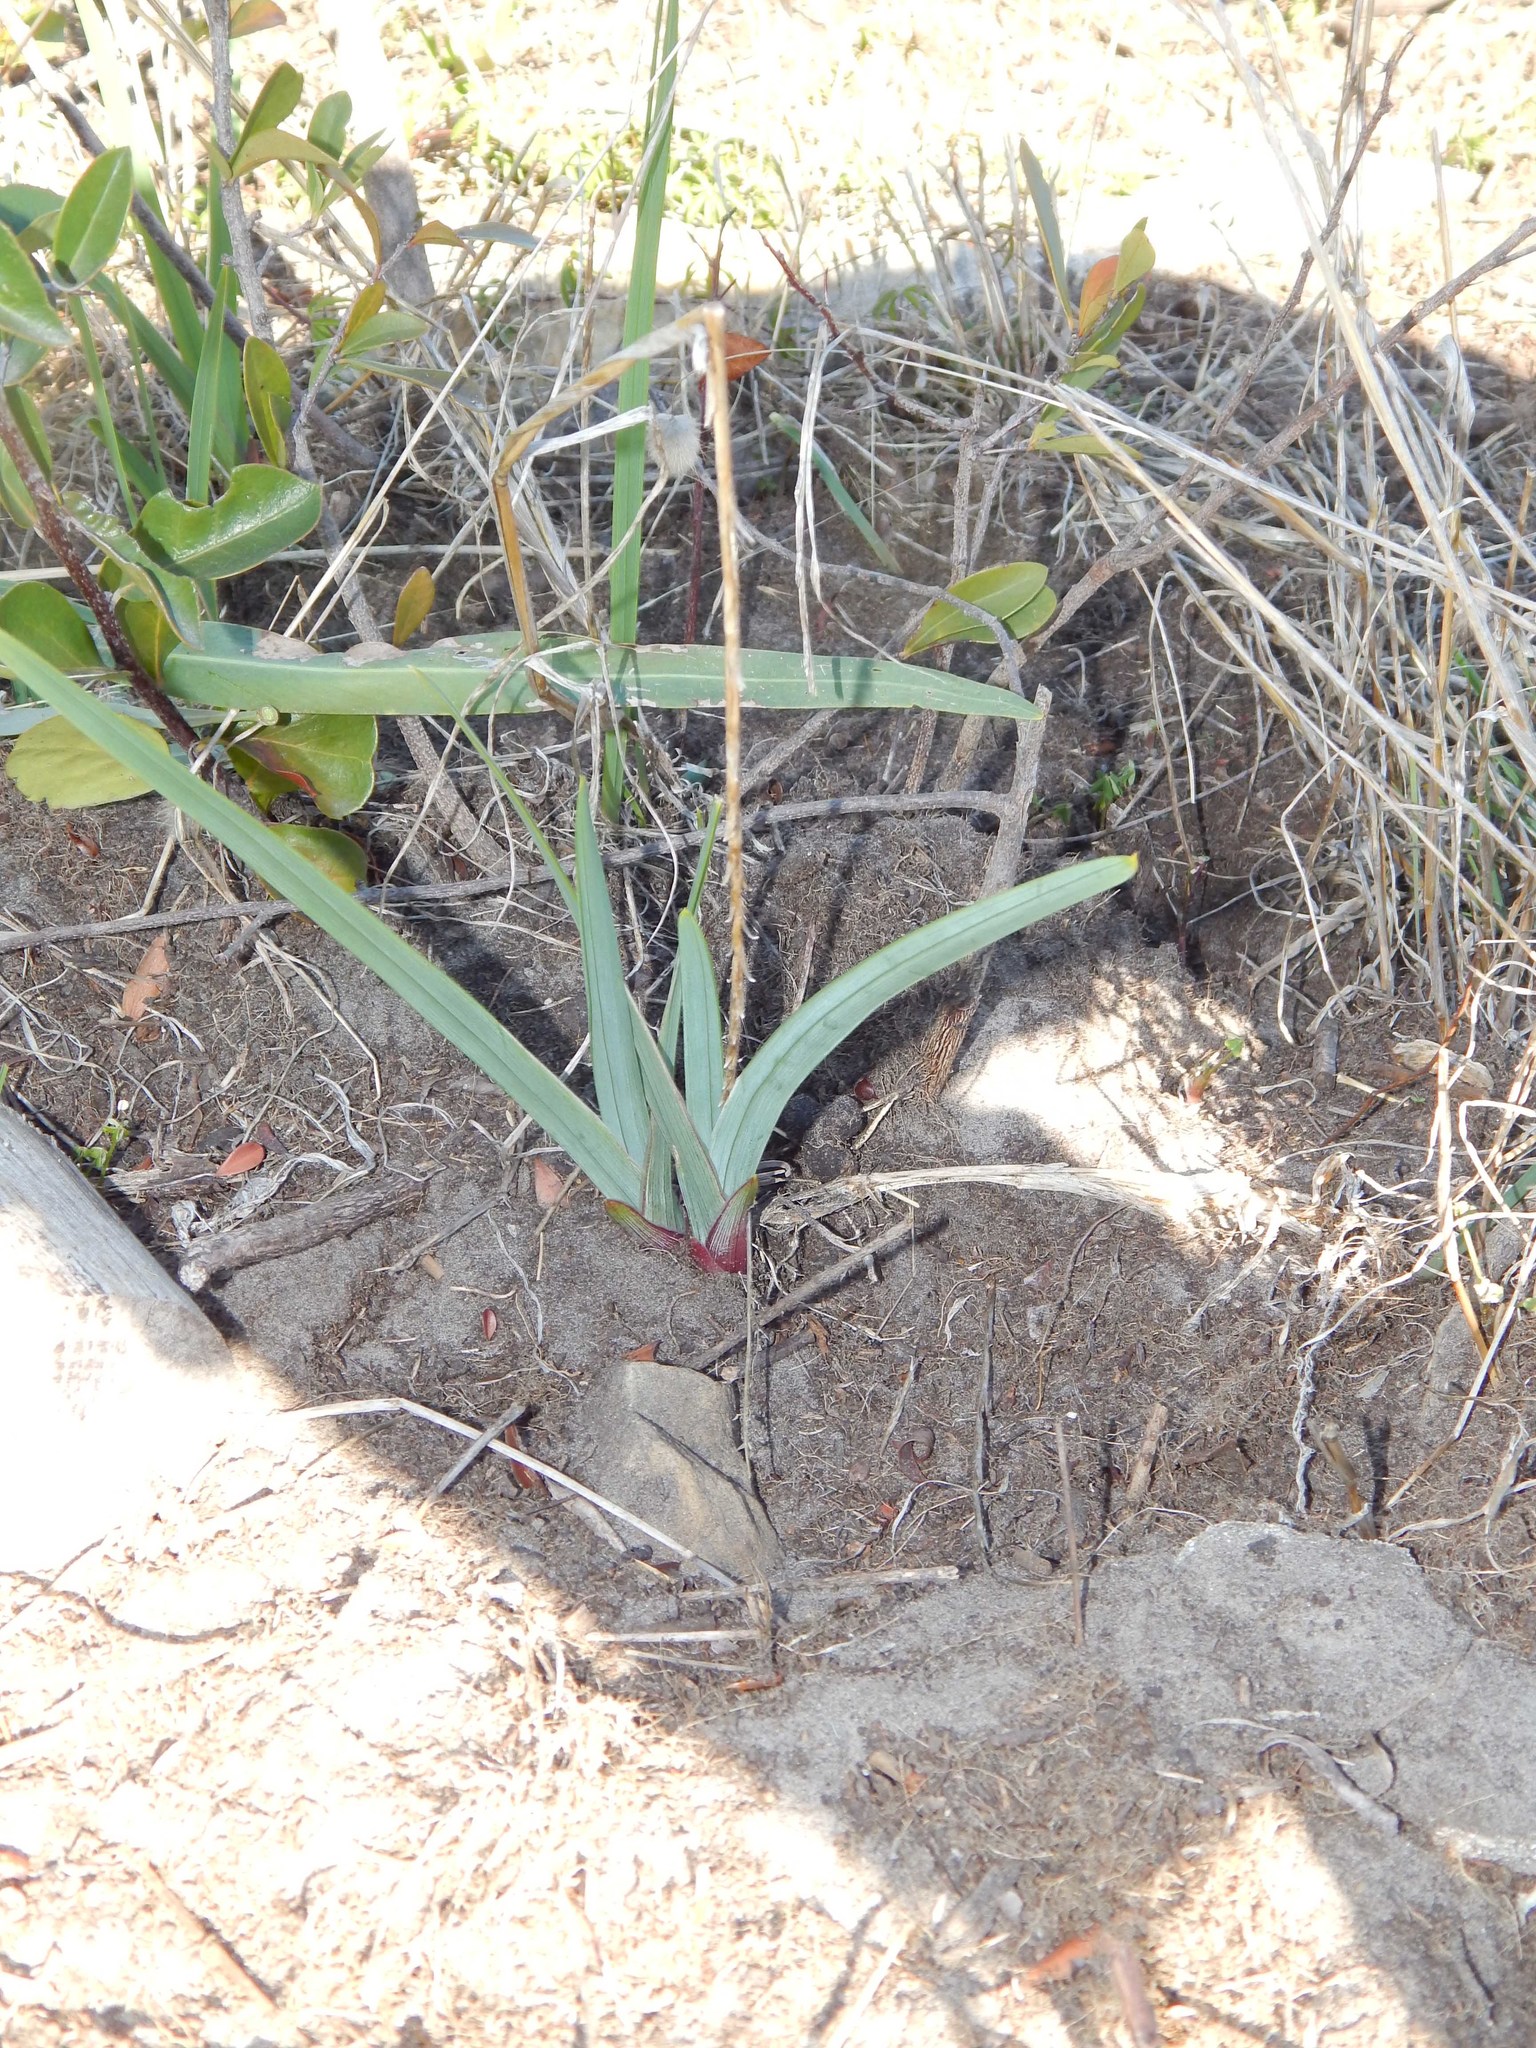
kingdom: Plantae
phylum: Tracheophyta
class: Liliopsida
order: Asparagales
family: Iridaceae
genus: Ferraria
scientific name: Ferraria crispa
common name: Black-flag
